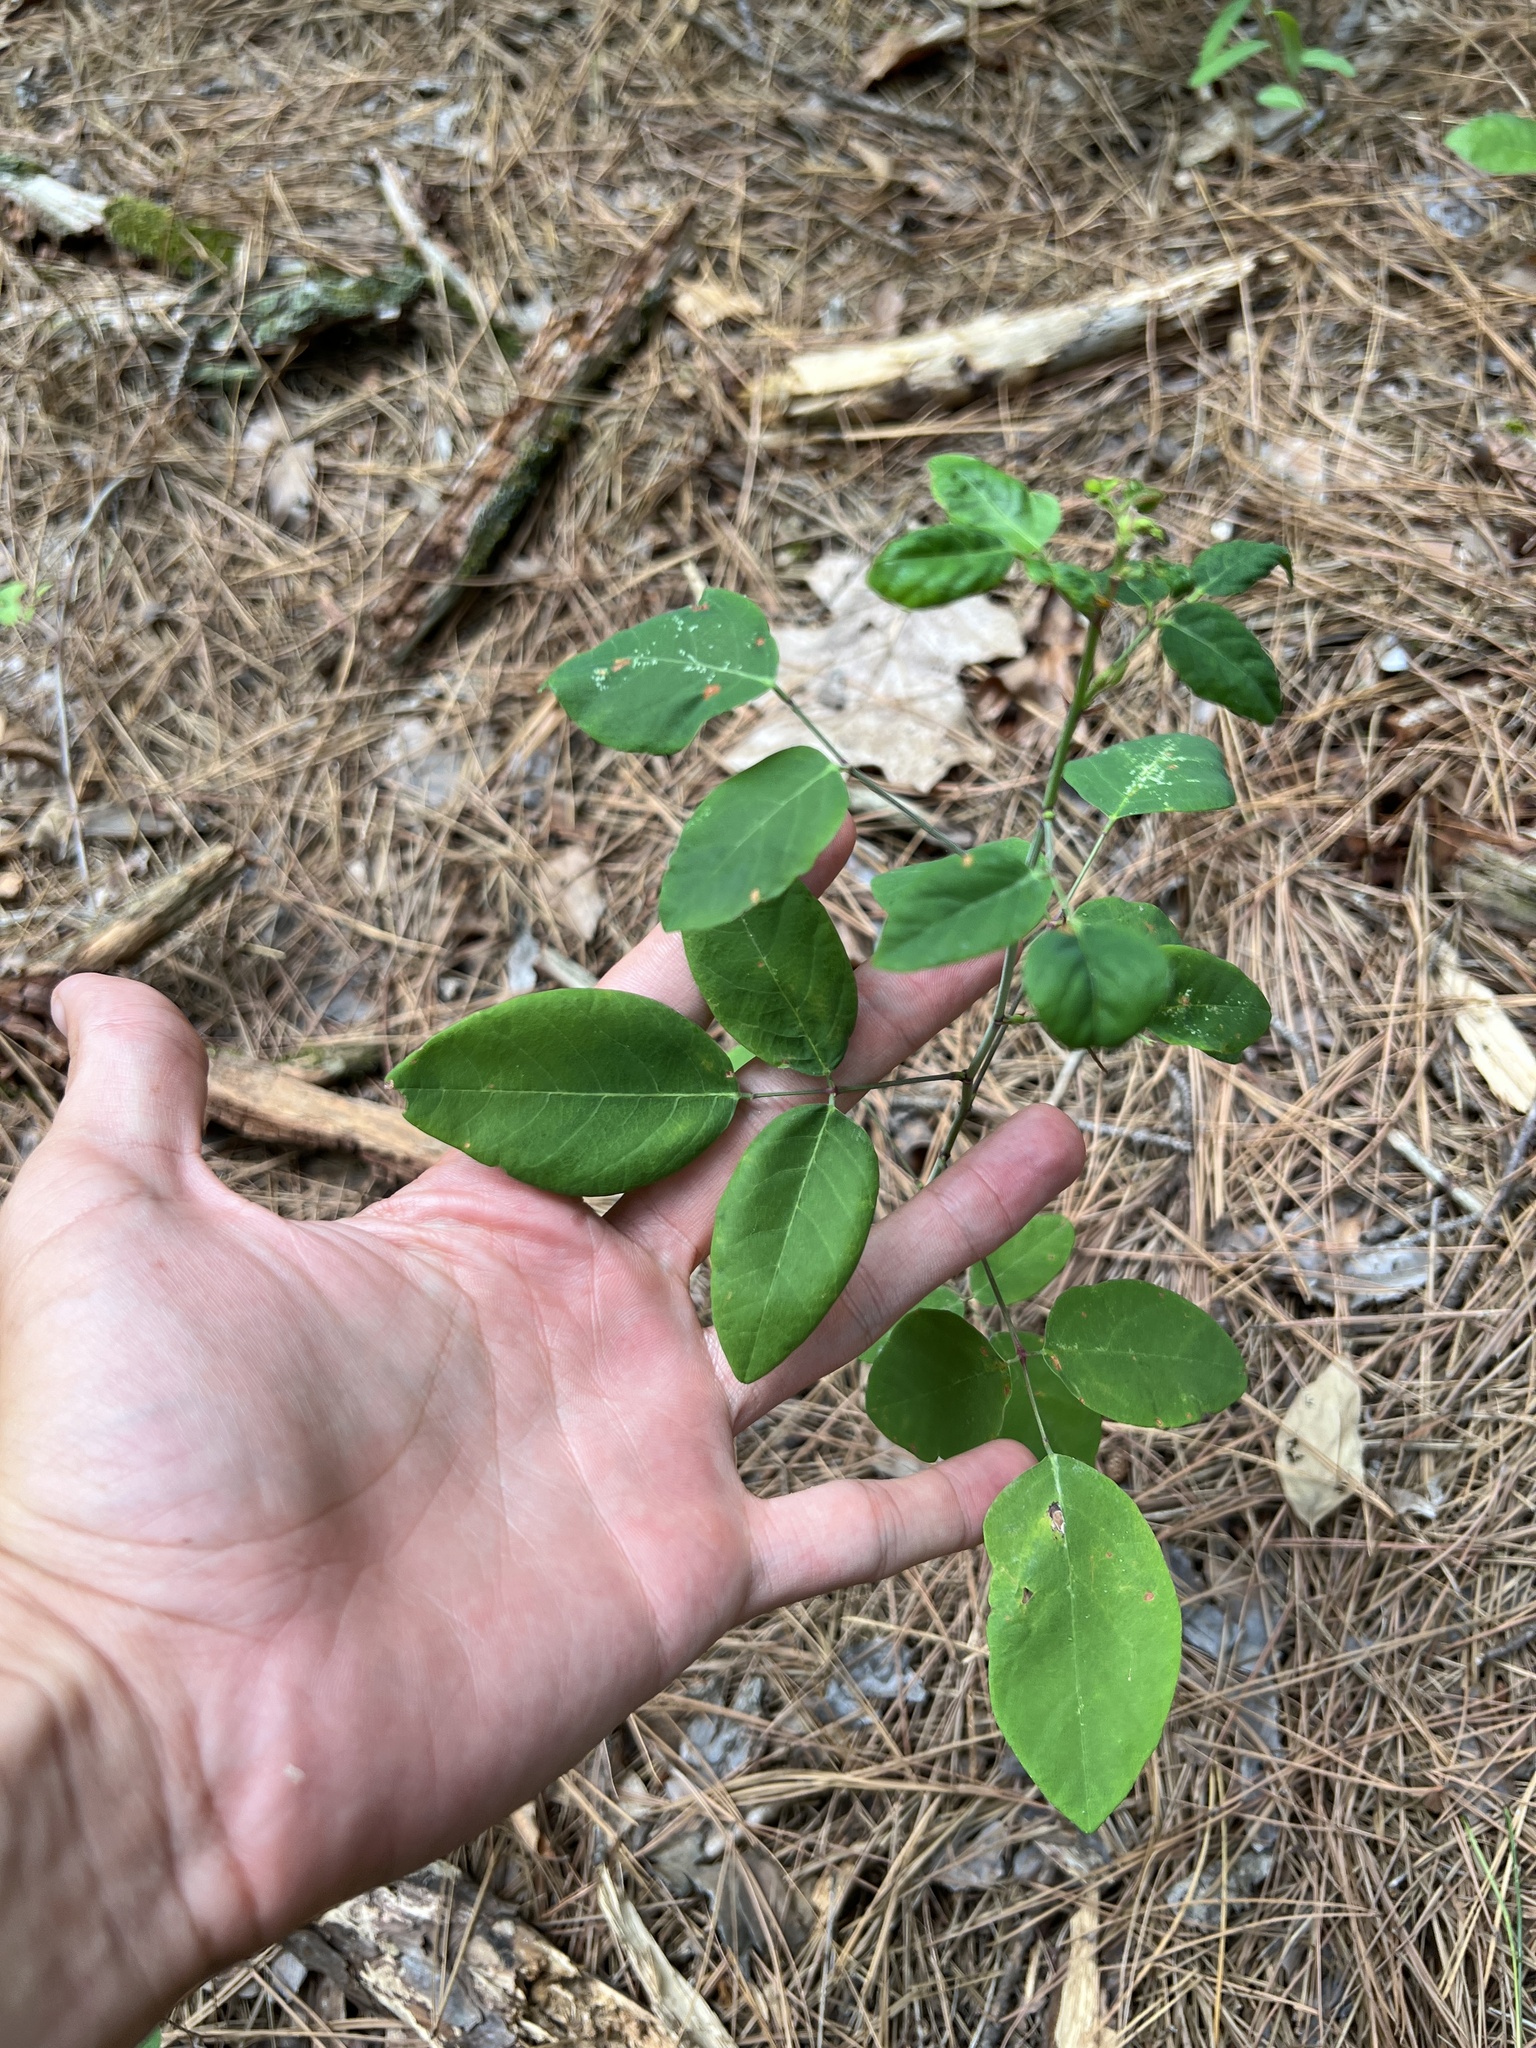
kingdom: Plantae
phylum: Tracheophyta
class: Magnoliopsida
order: Fabales
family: Fabaceae
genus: Desmodium
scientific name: Desmodium laevigatum
